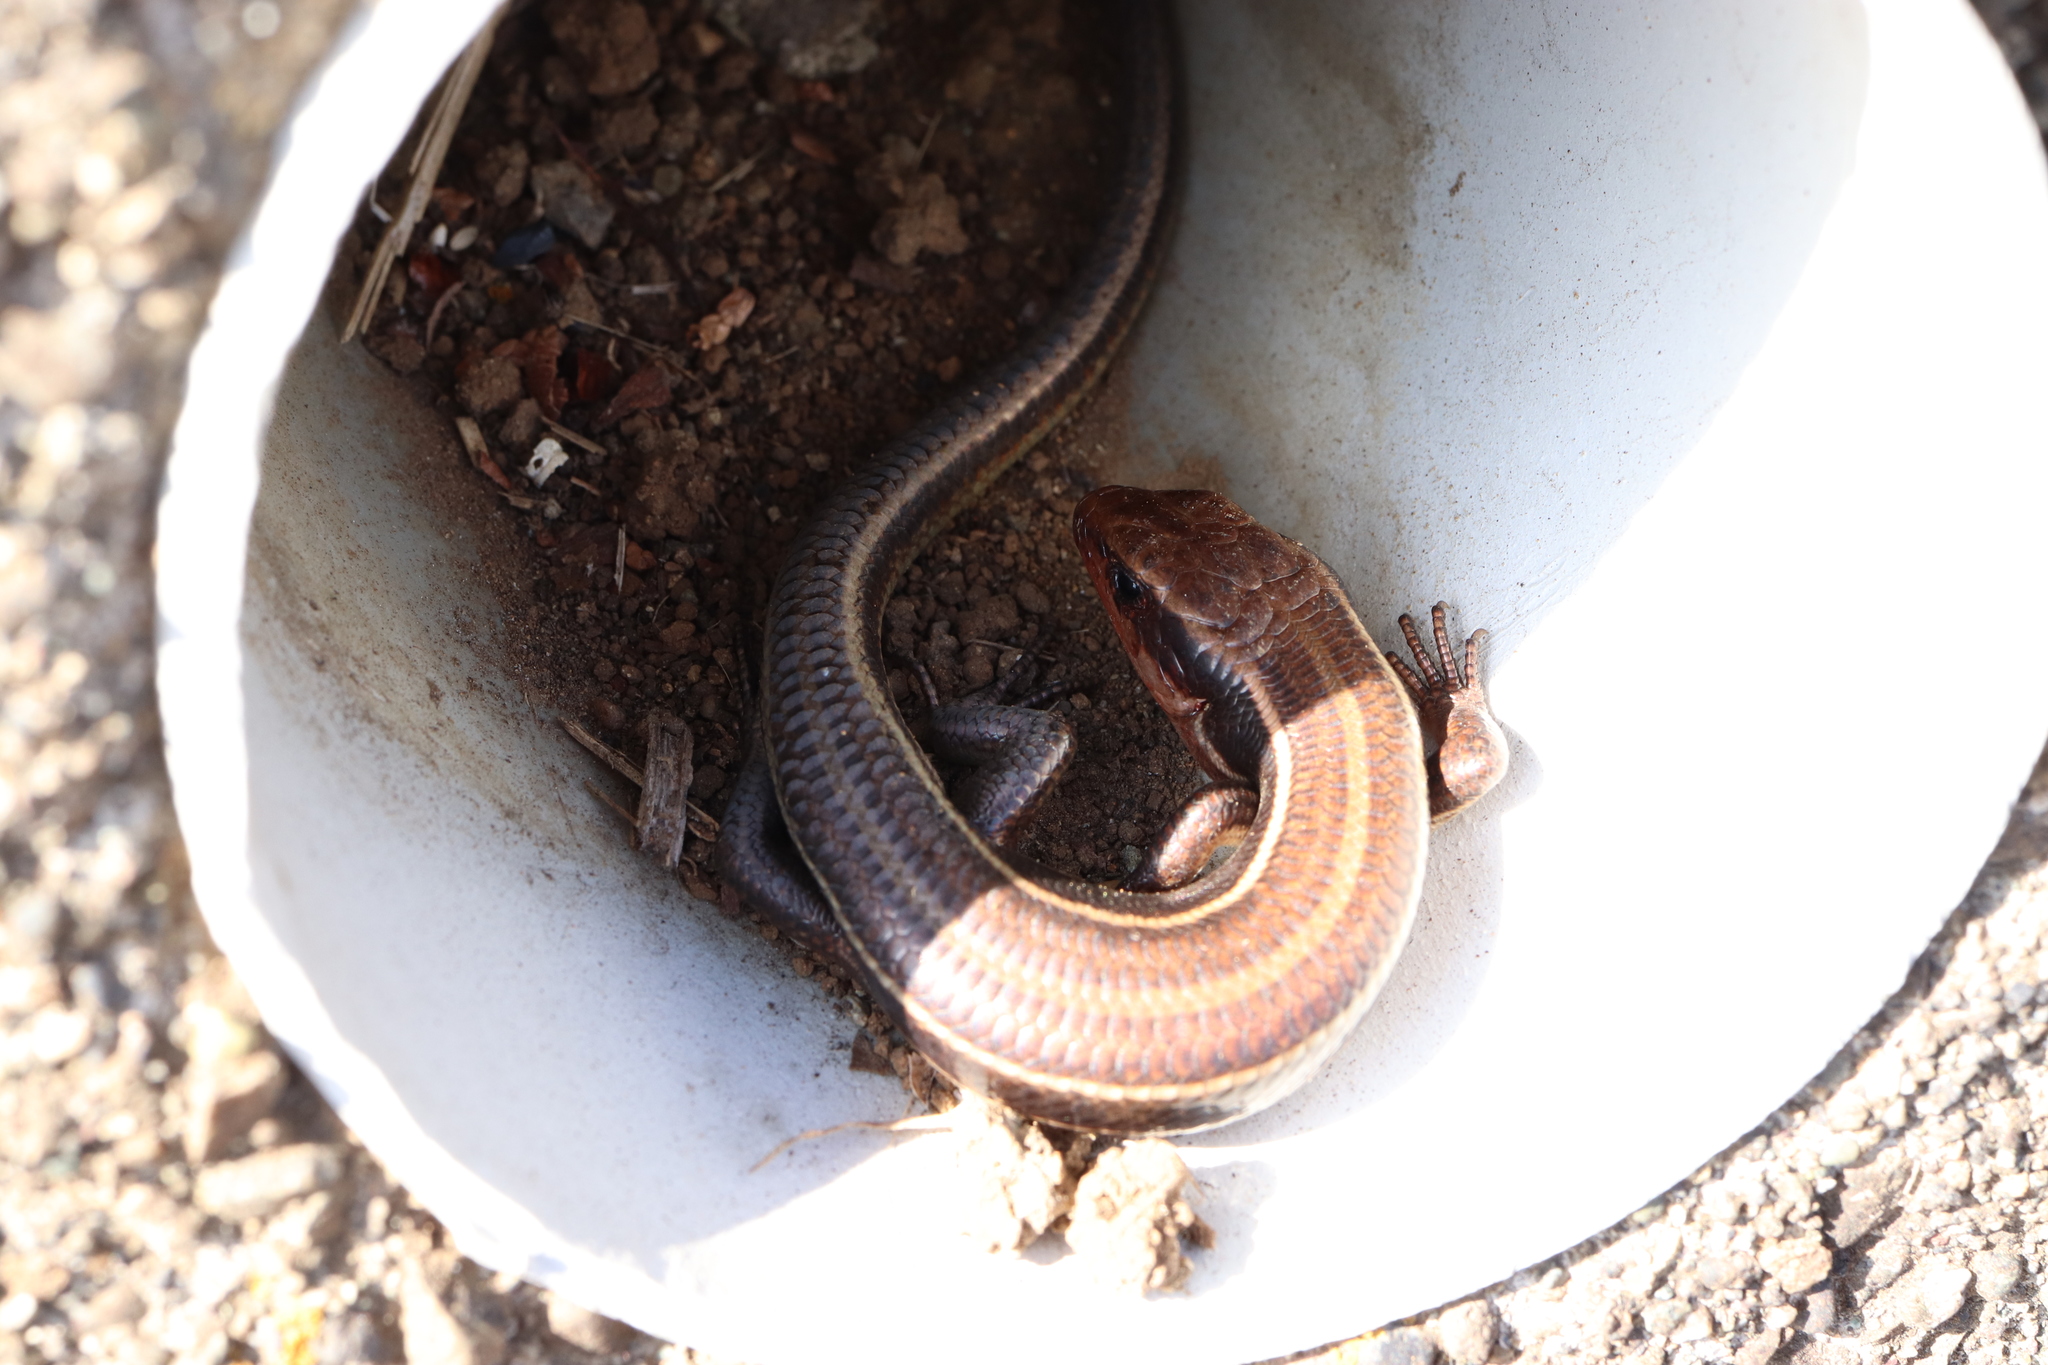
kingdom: Animalia
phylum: Chordata
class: Squamata
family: Scincidae
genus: Plestiodon
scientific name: Plestiodon finitimus
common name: Far eastern skink
